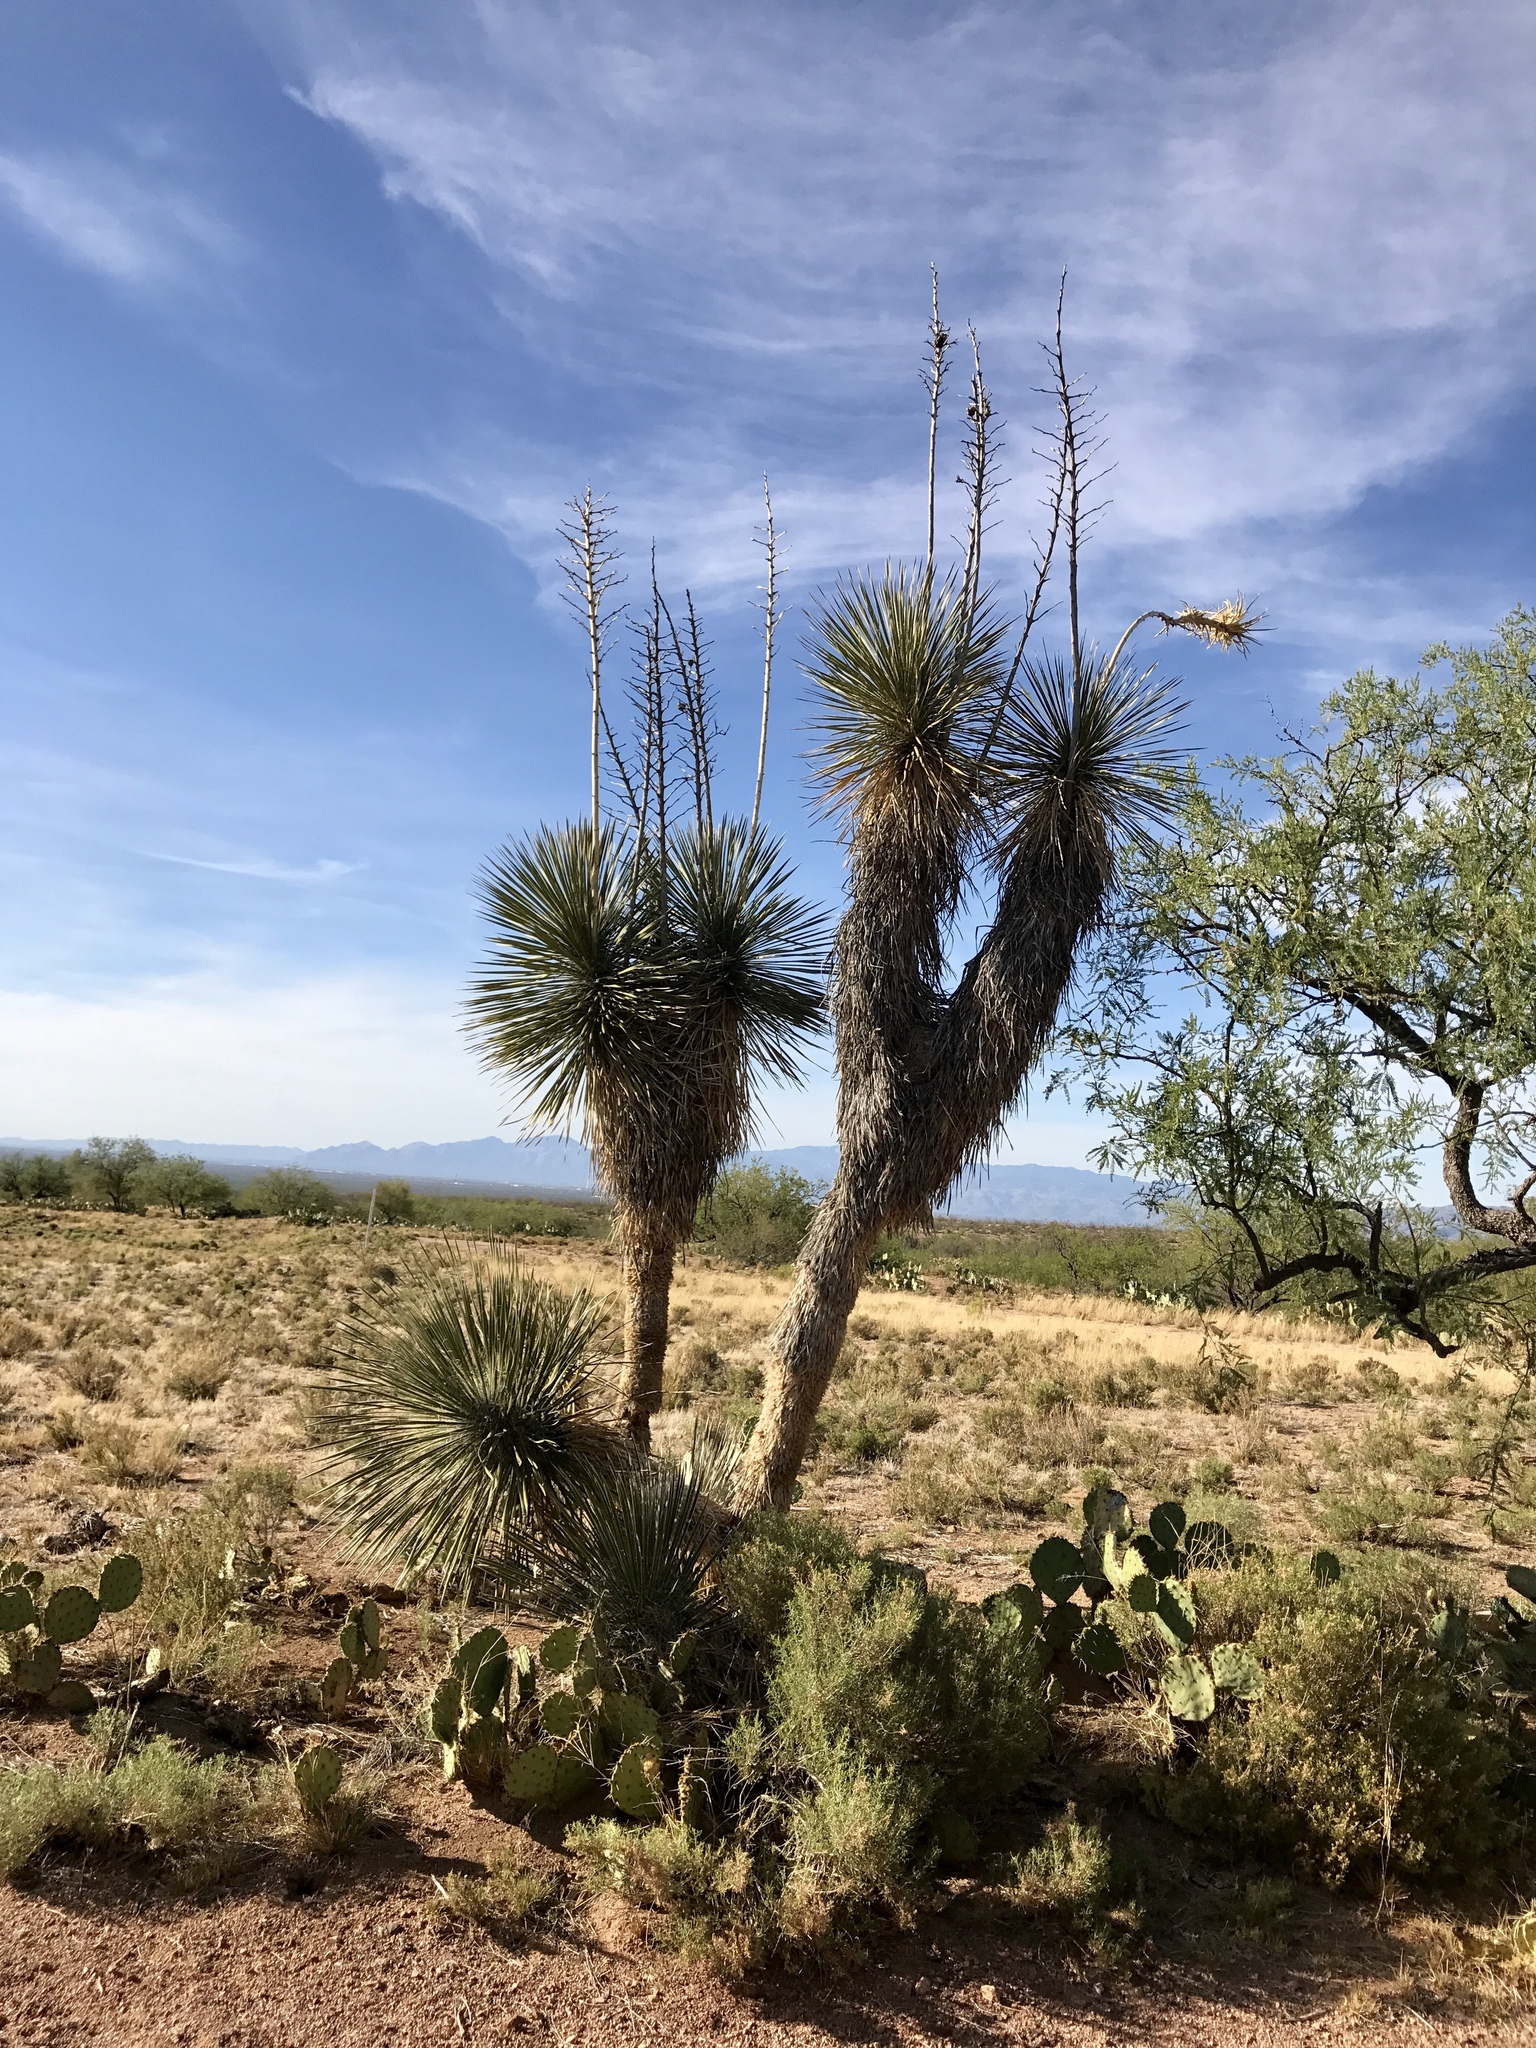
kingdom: Plantae
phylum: Tracheophyta
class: Liliopsida
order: Asparagales
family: Asparagaceae
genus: Yucca
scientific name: Yucca elata
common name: Palmella
